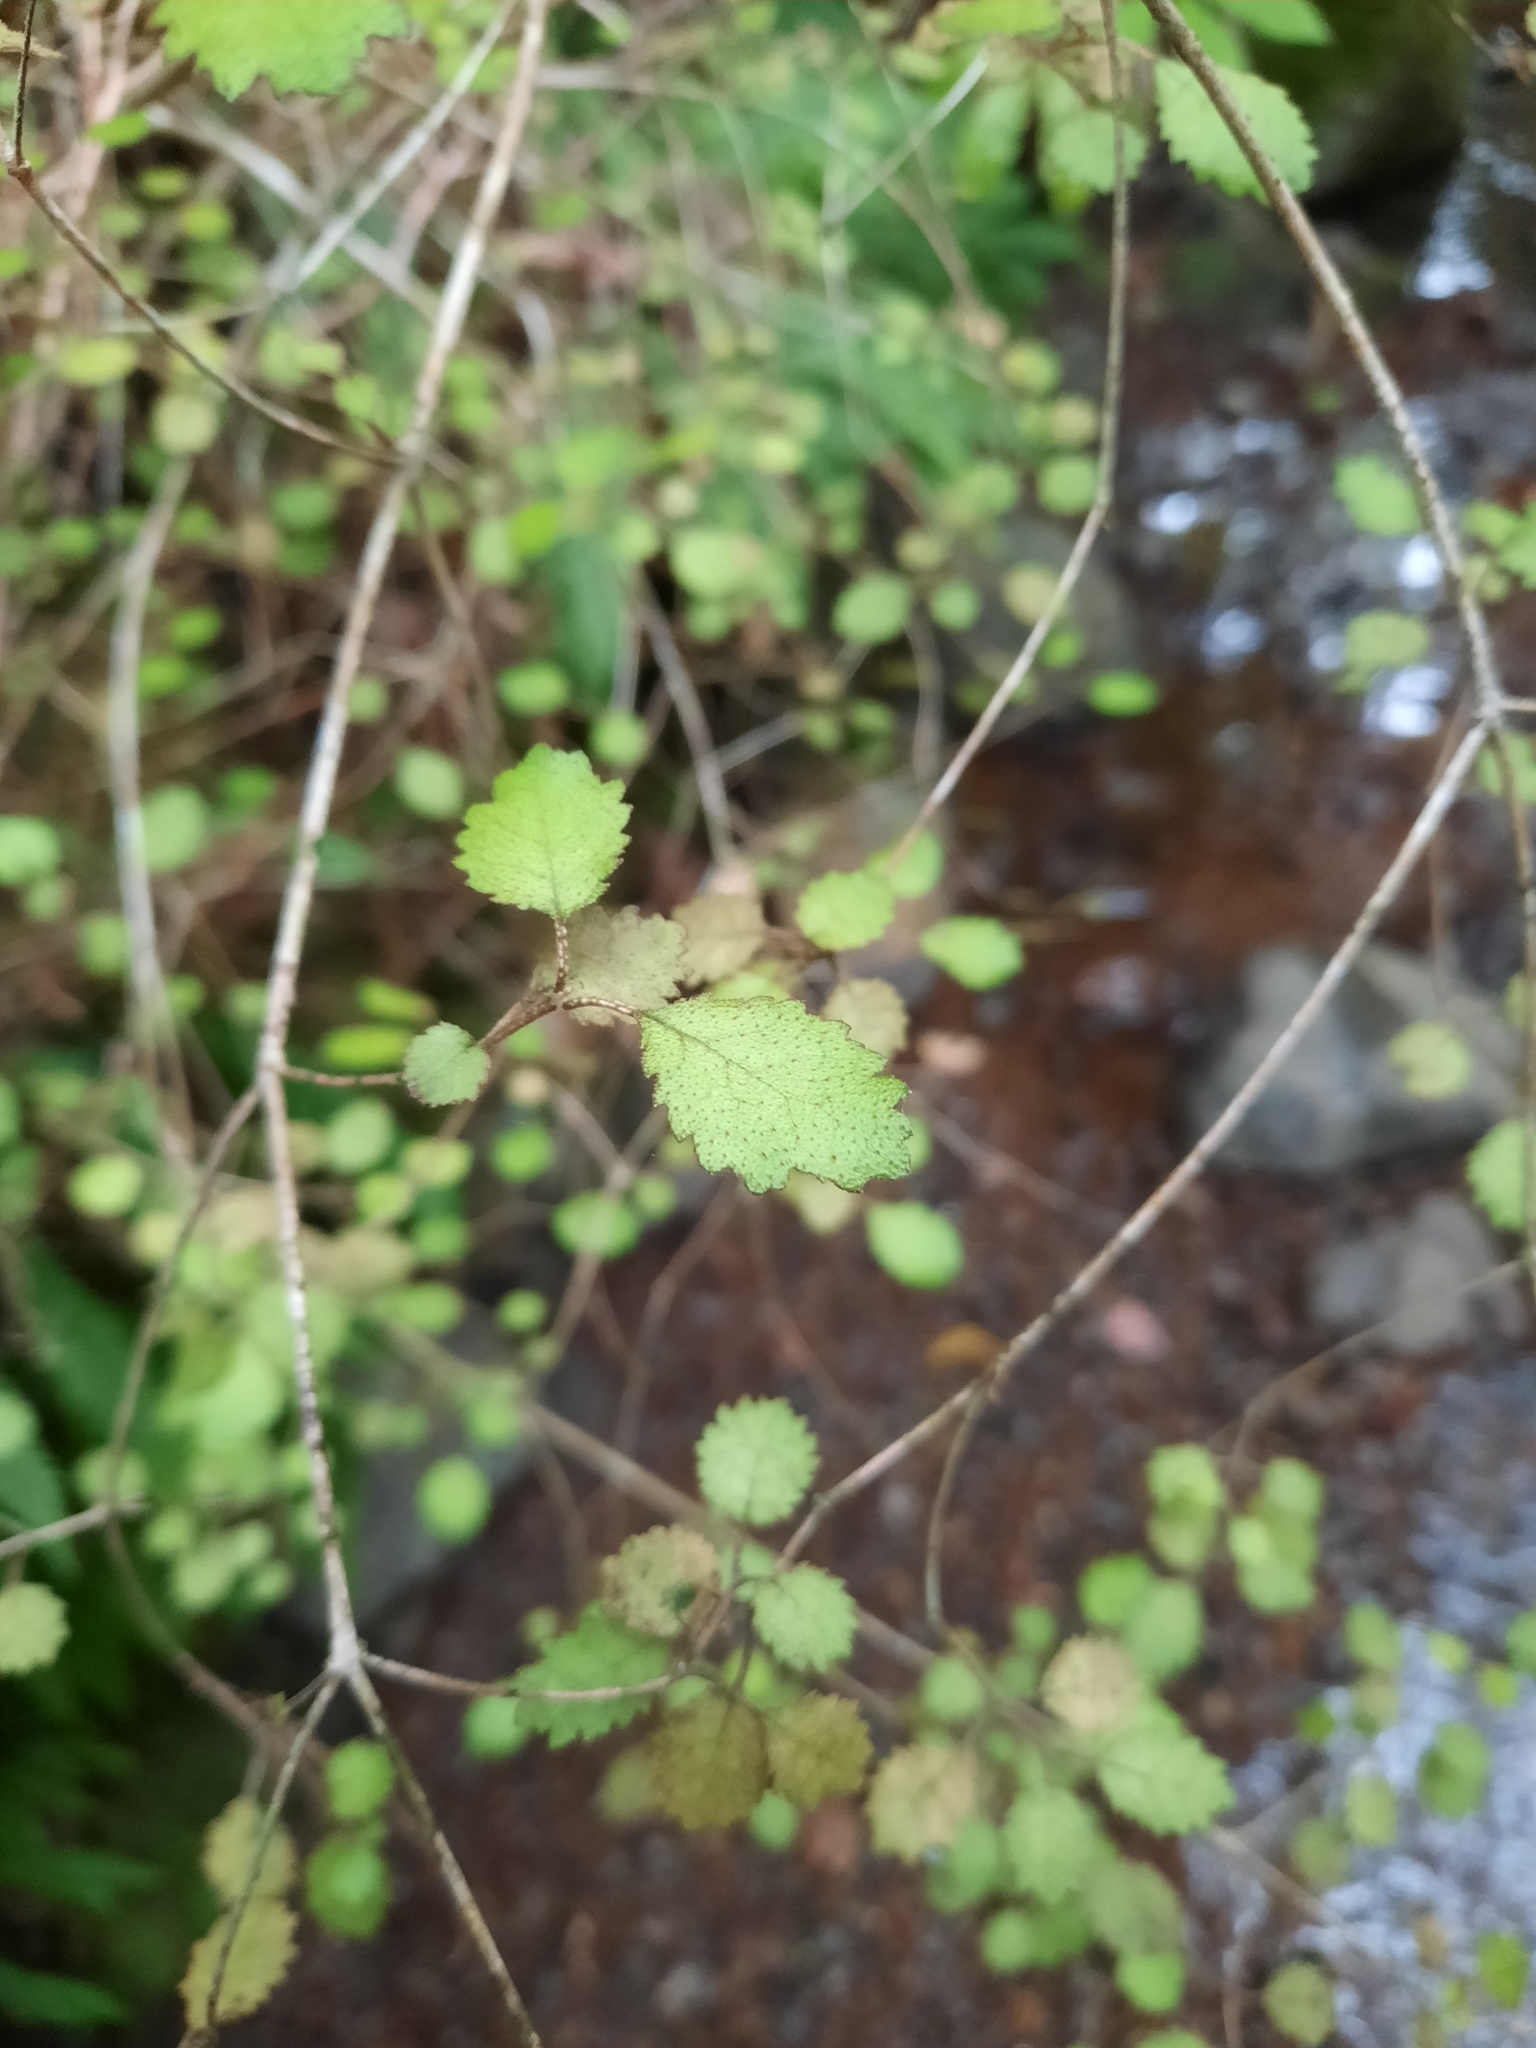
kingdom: Plantae
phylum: Tracheophyta
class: Magnoliopsida
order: Lamiales
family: Gesneriaceae
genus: Rhabdothamnus
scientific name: Rhabdothamnus solandri
